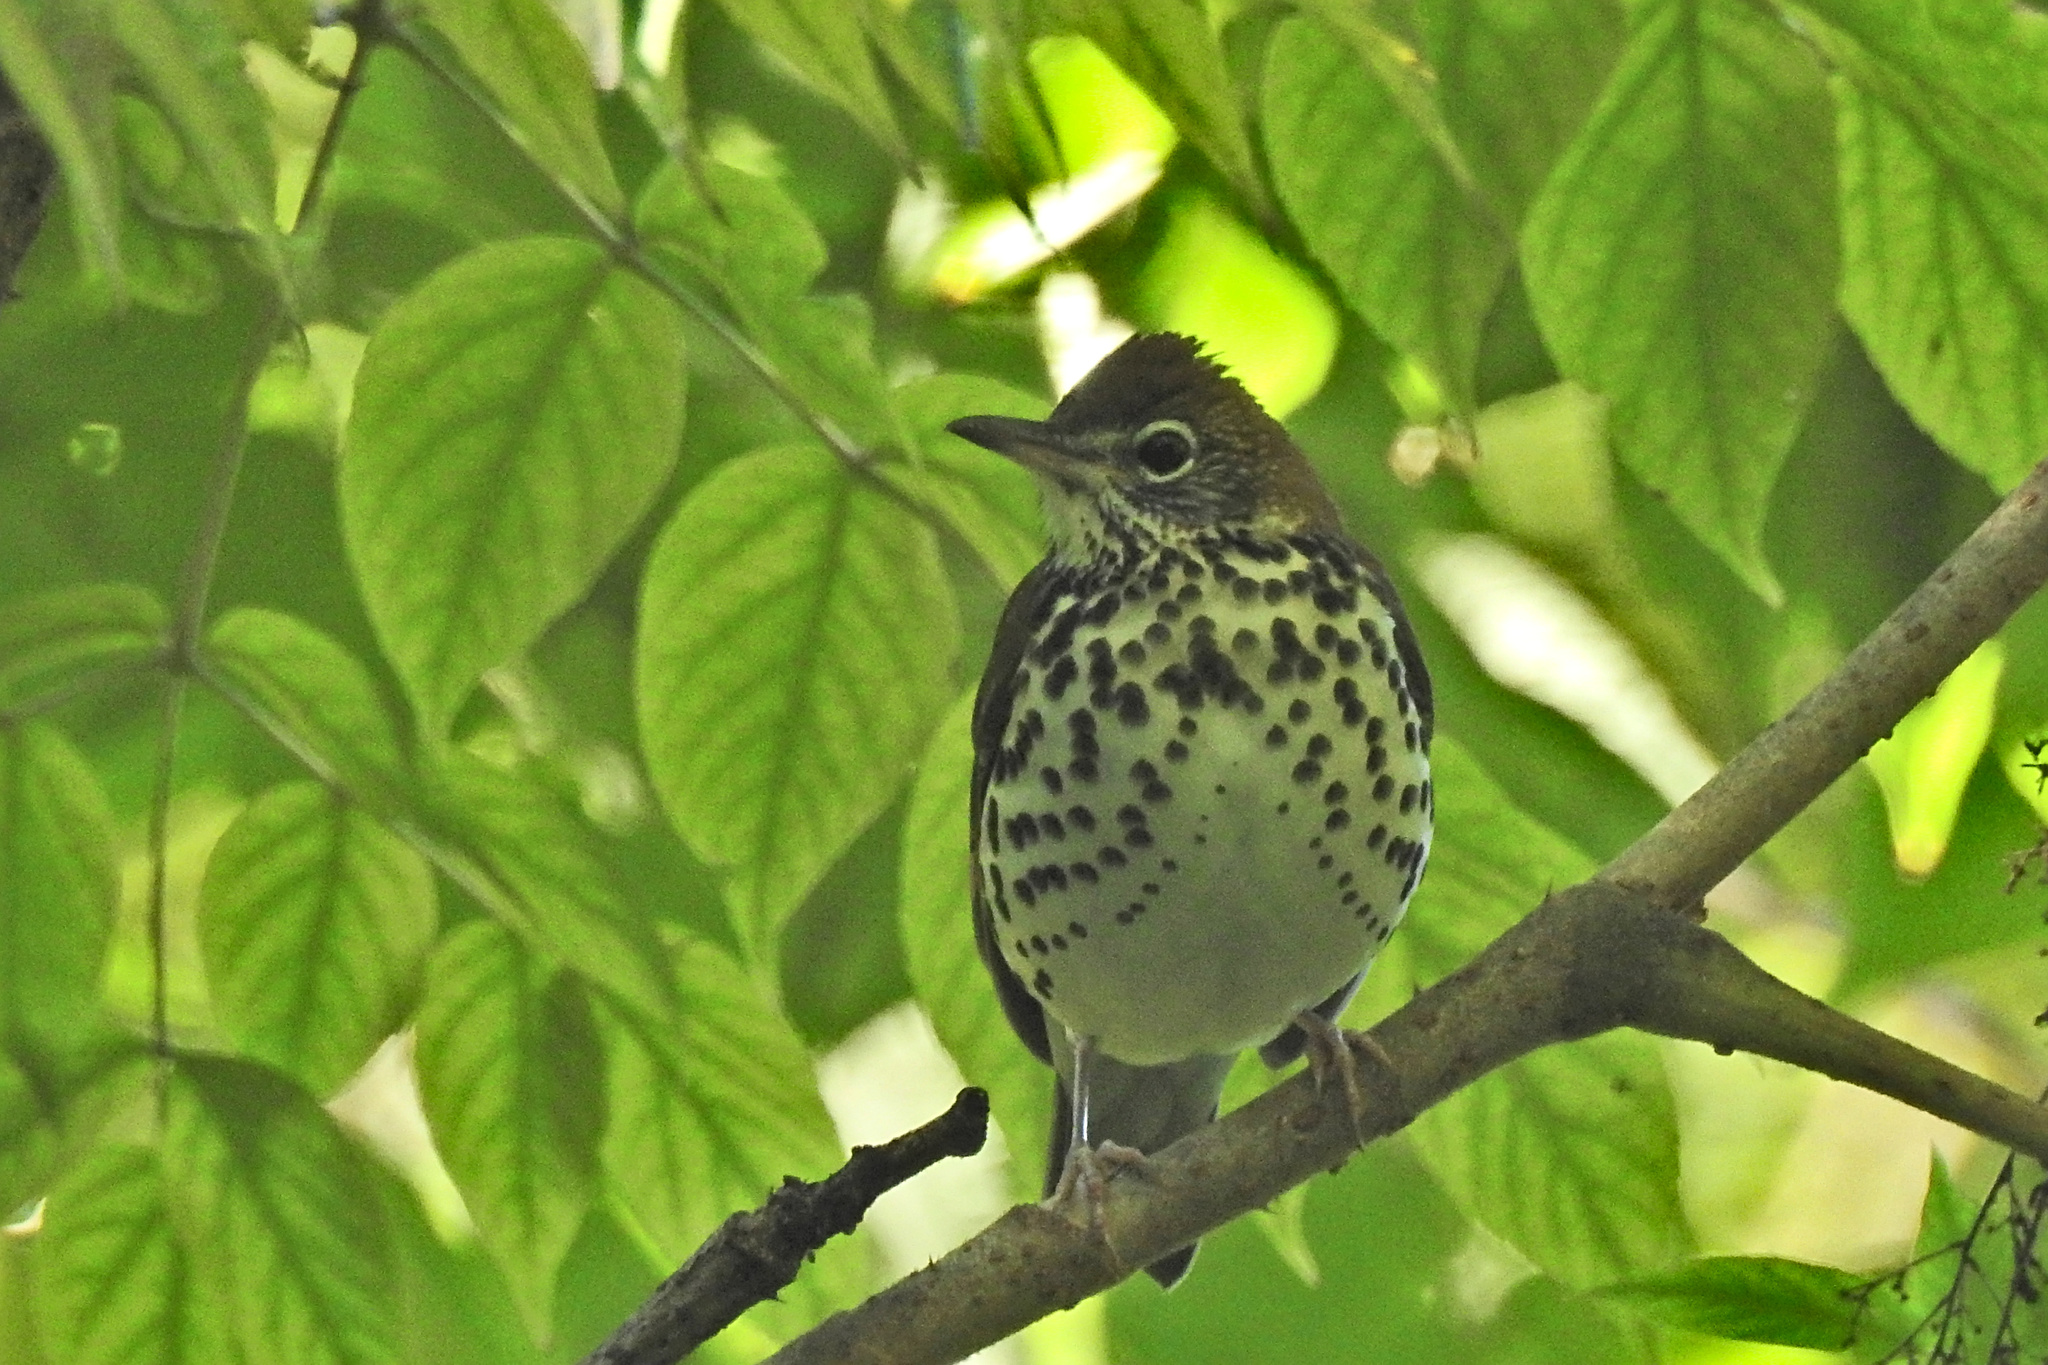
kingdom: Animalia
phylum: Chordata
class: Aves
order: Passeriformes
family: Turdidae
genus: Hylocichla
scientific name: Hylocichla mustelina
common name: Wood thrush
